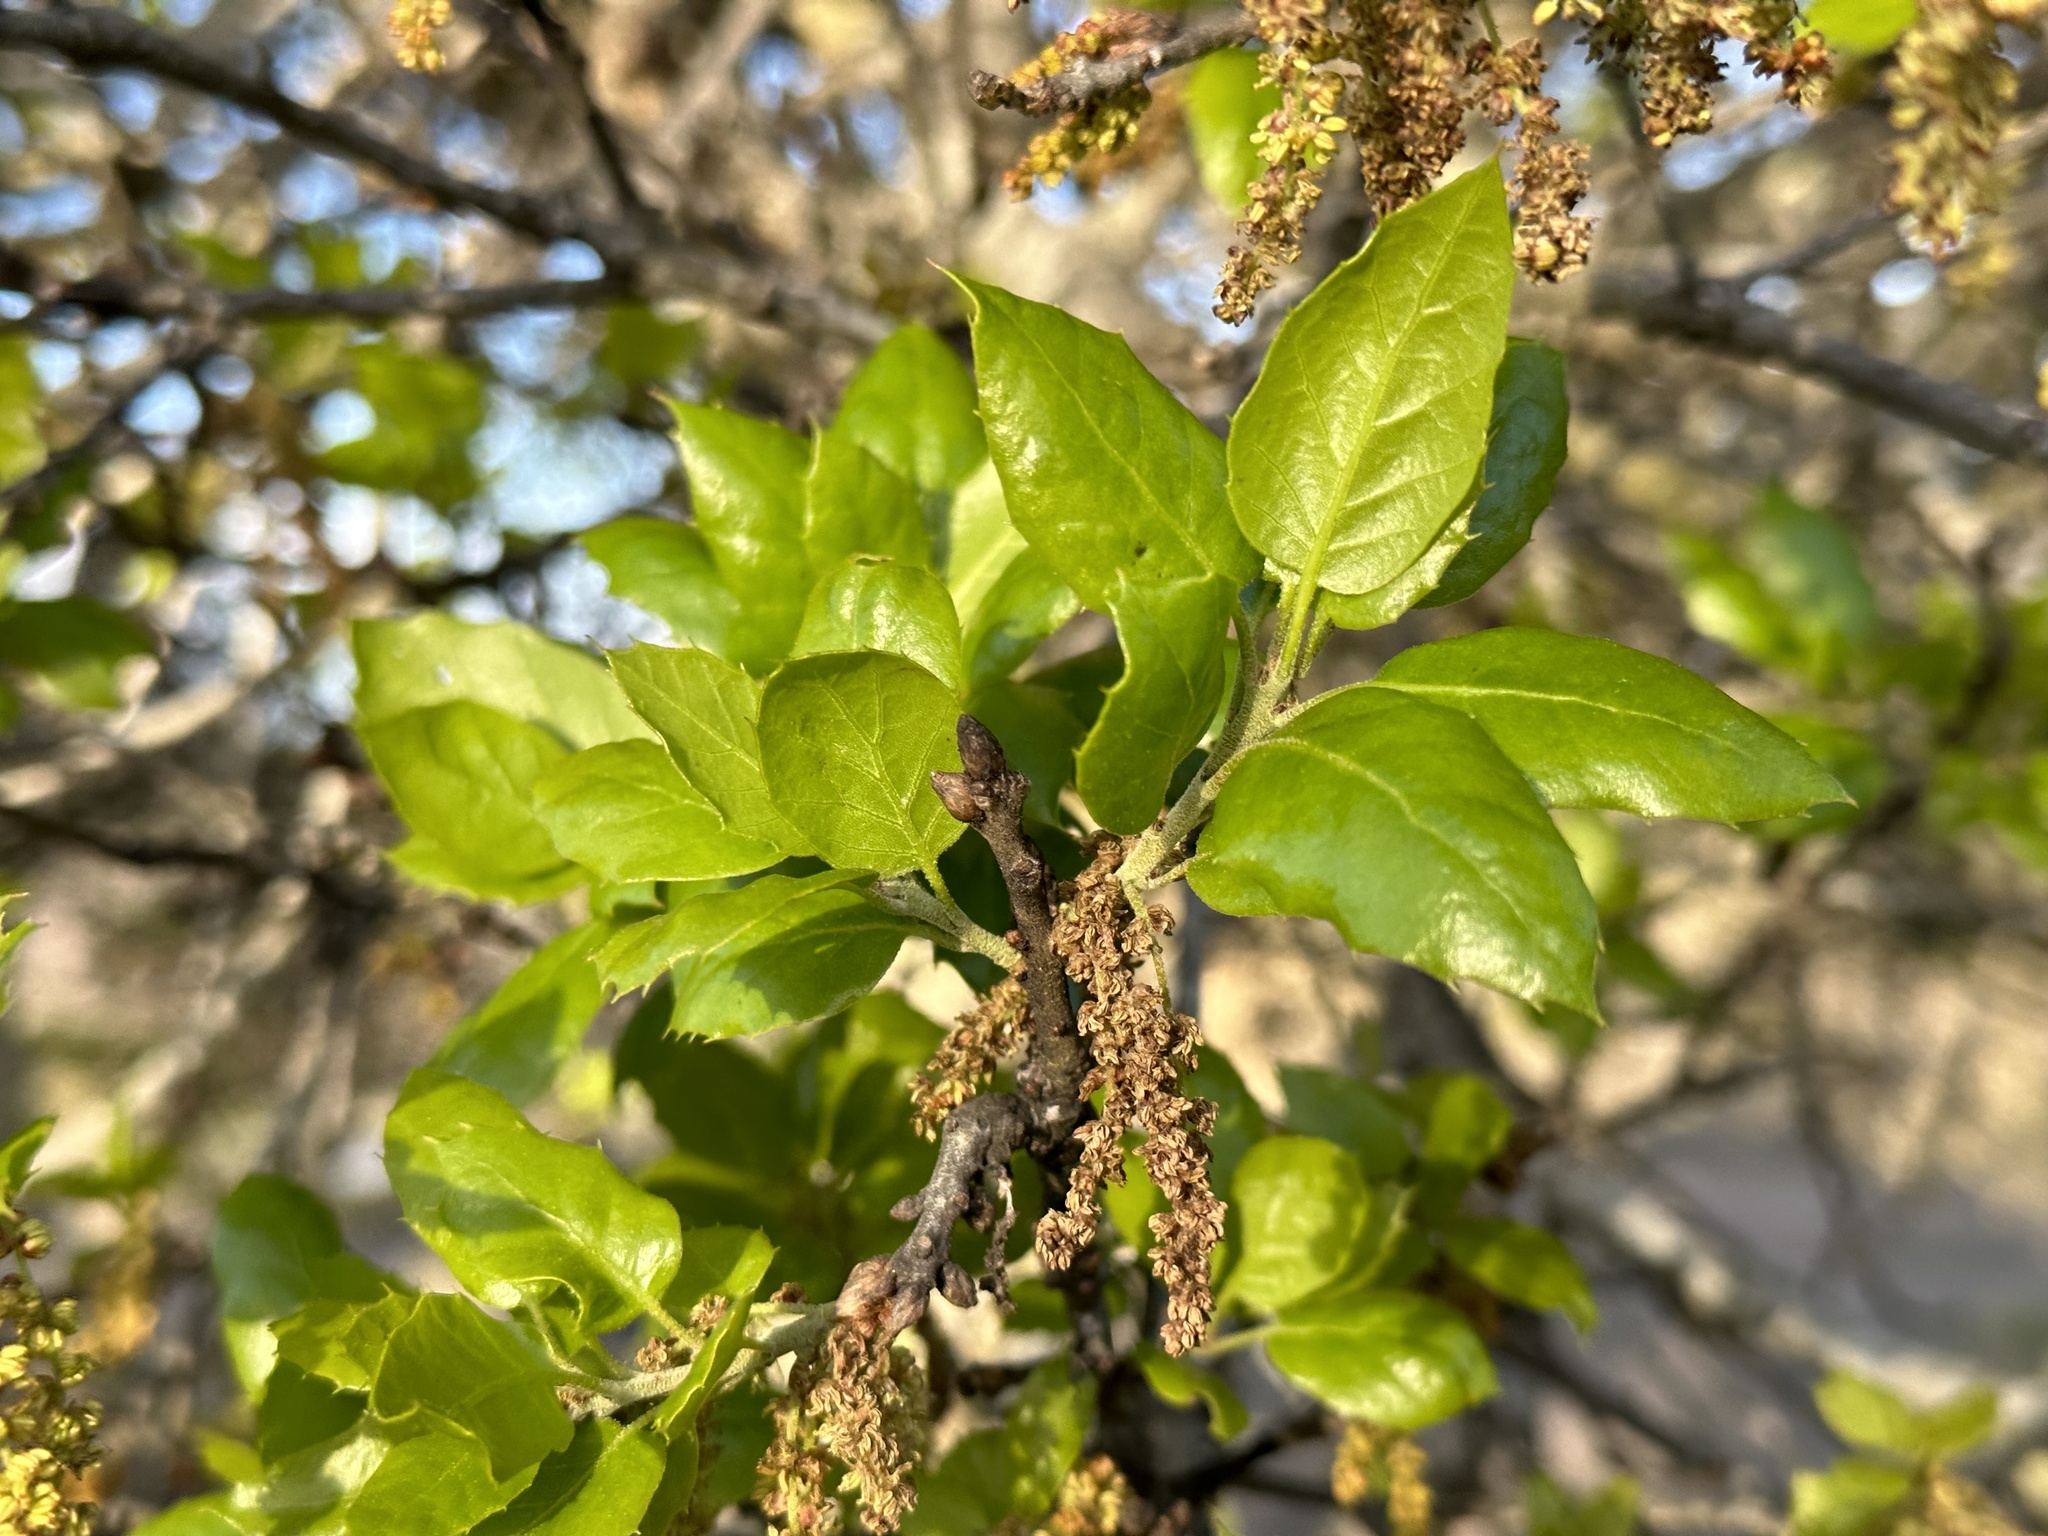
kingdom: Plantae
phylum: Tracheophyta
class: Magnoliopsida
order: Fagales
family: Fagaceae
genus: Quercus
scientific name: Quercus agrifolia
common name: California live oak
